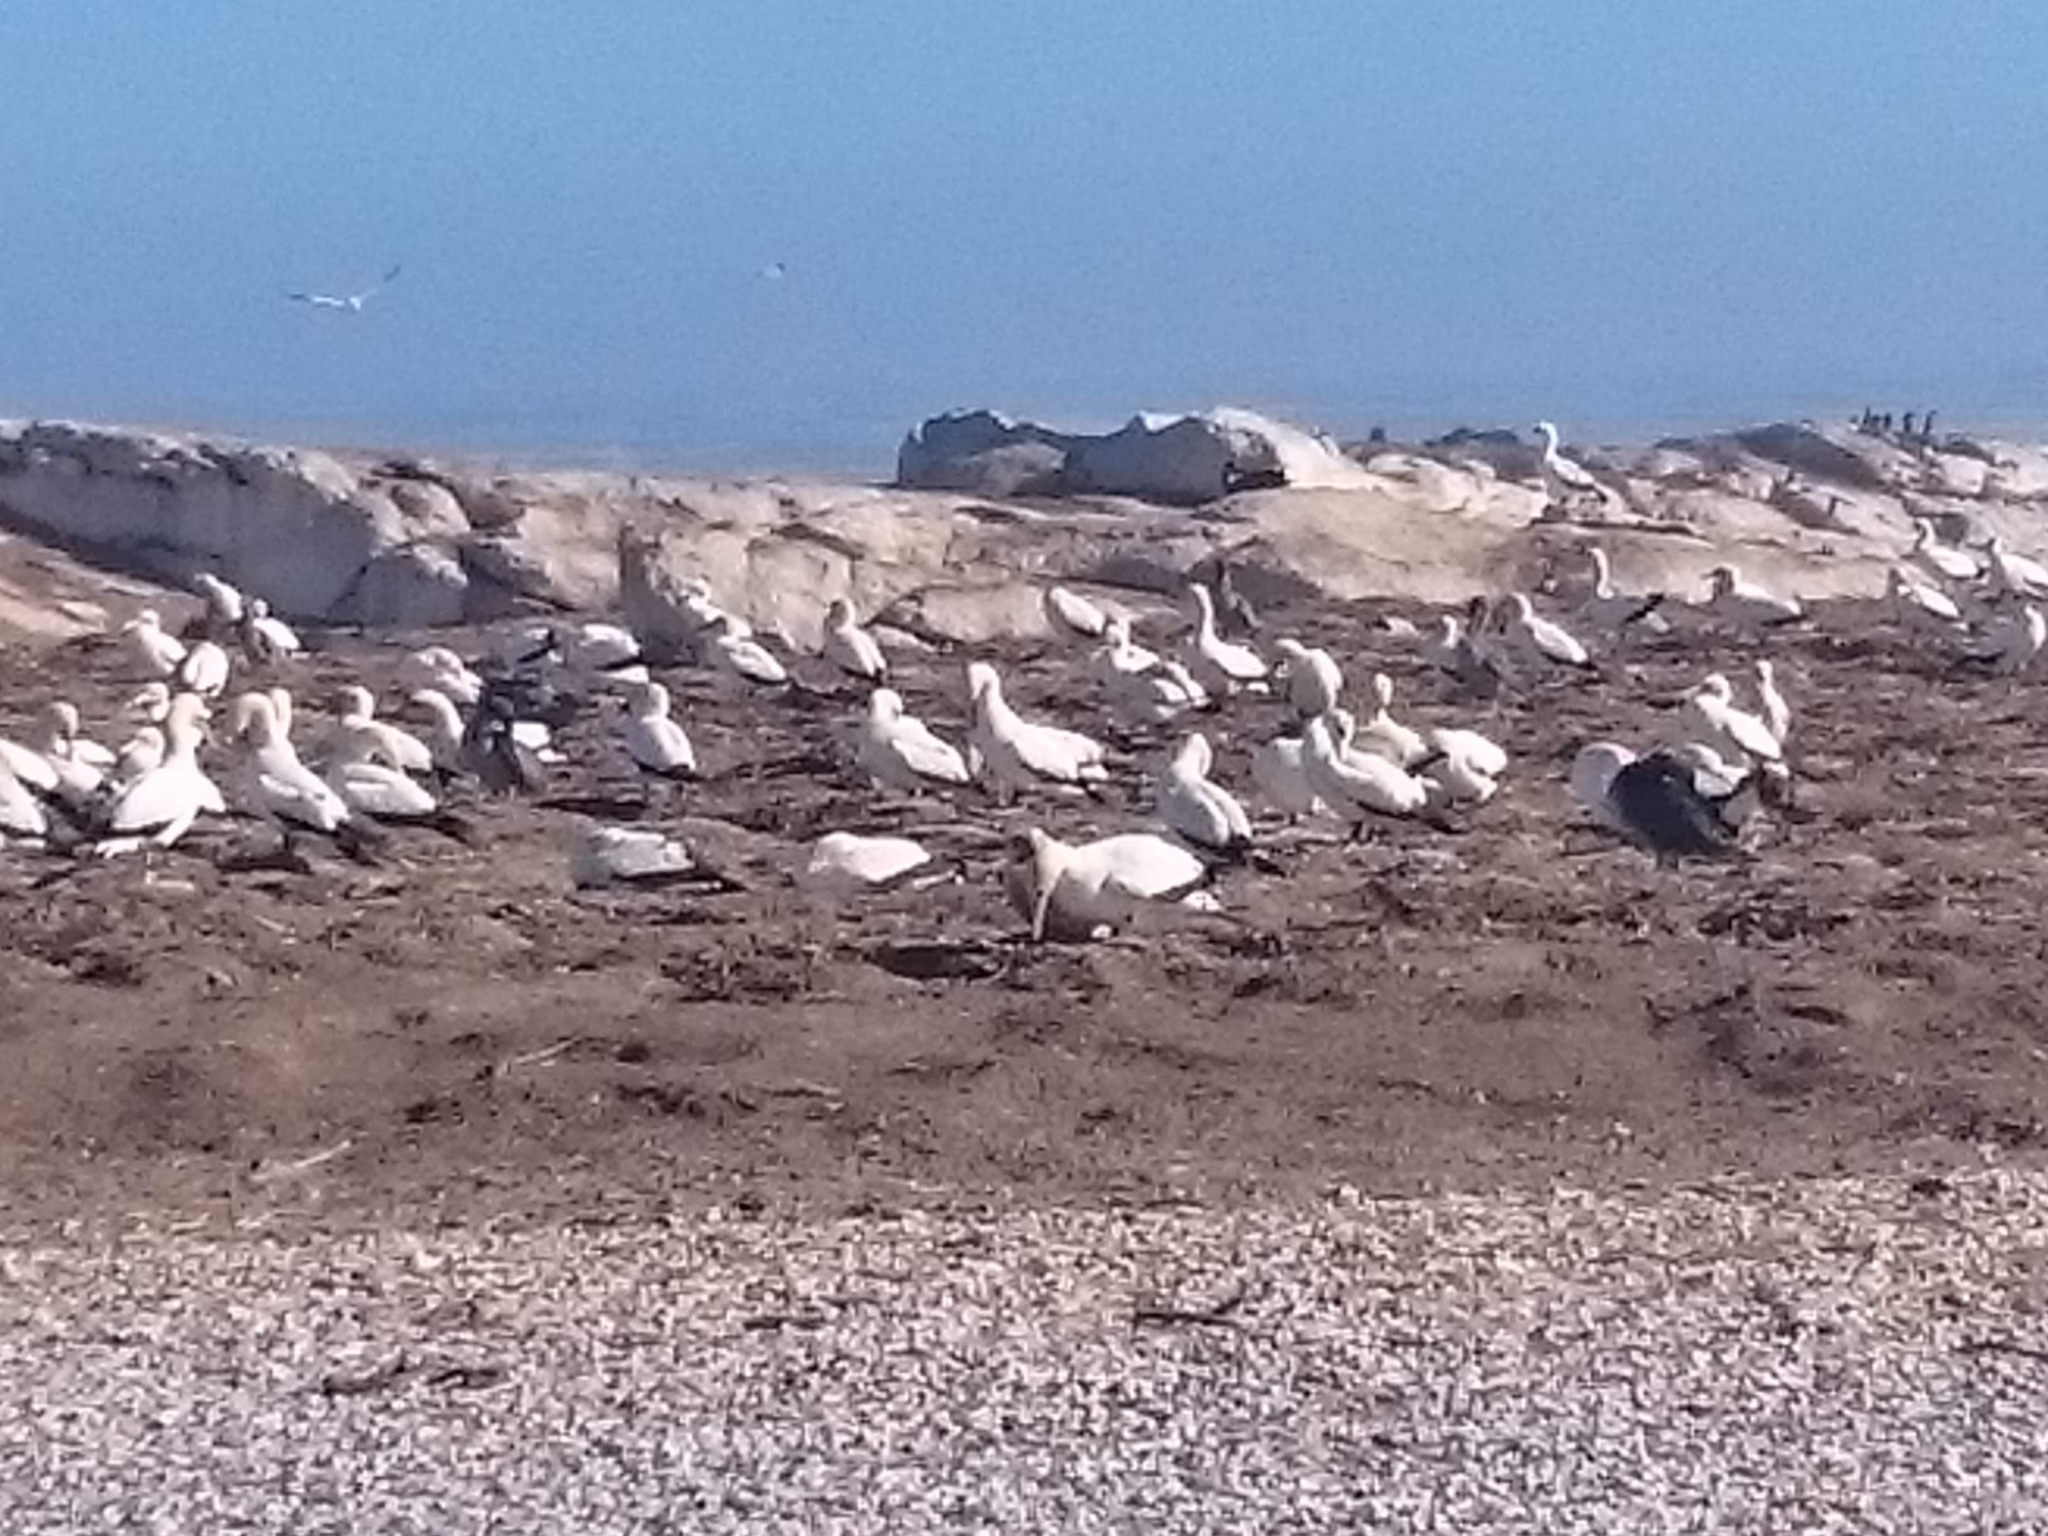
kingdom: Animalia
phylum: Chordata
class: Aves
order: Suliformes
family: Sulidae
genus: Morus
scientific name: Morus capensis
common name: Cape gannet
